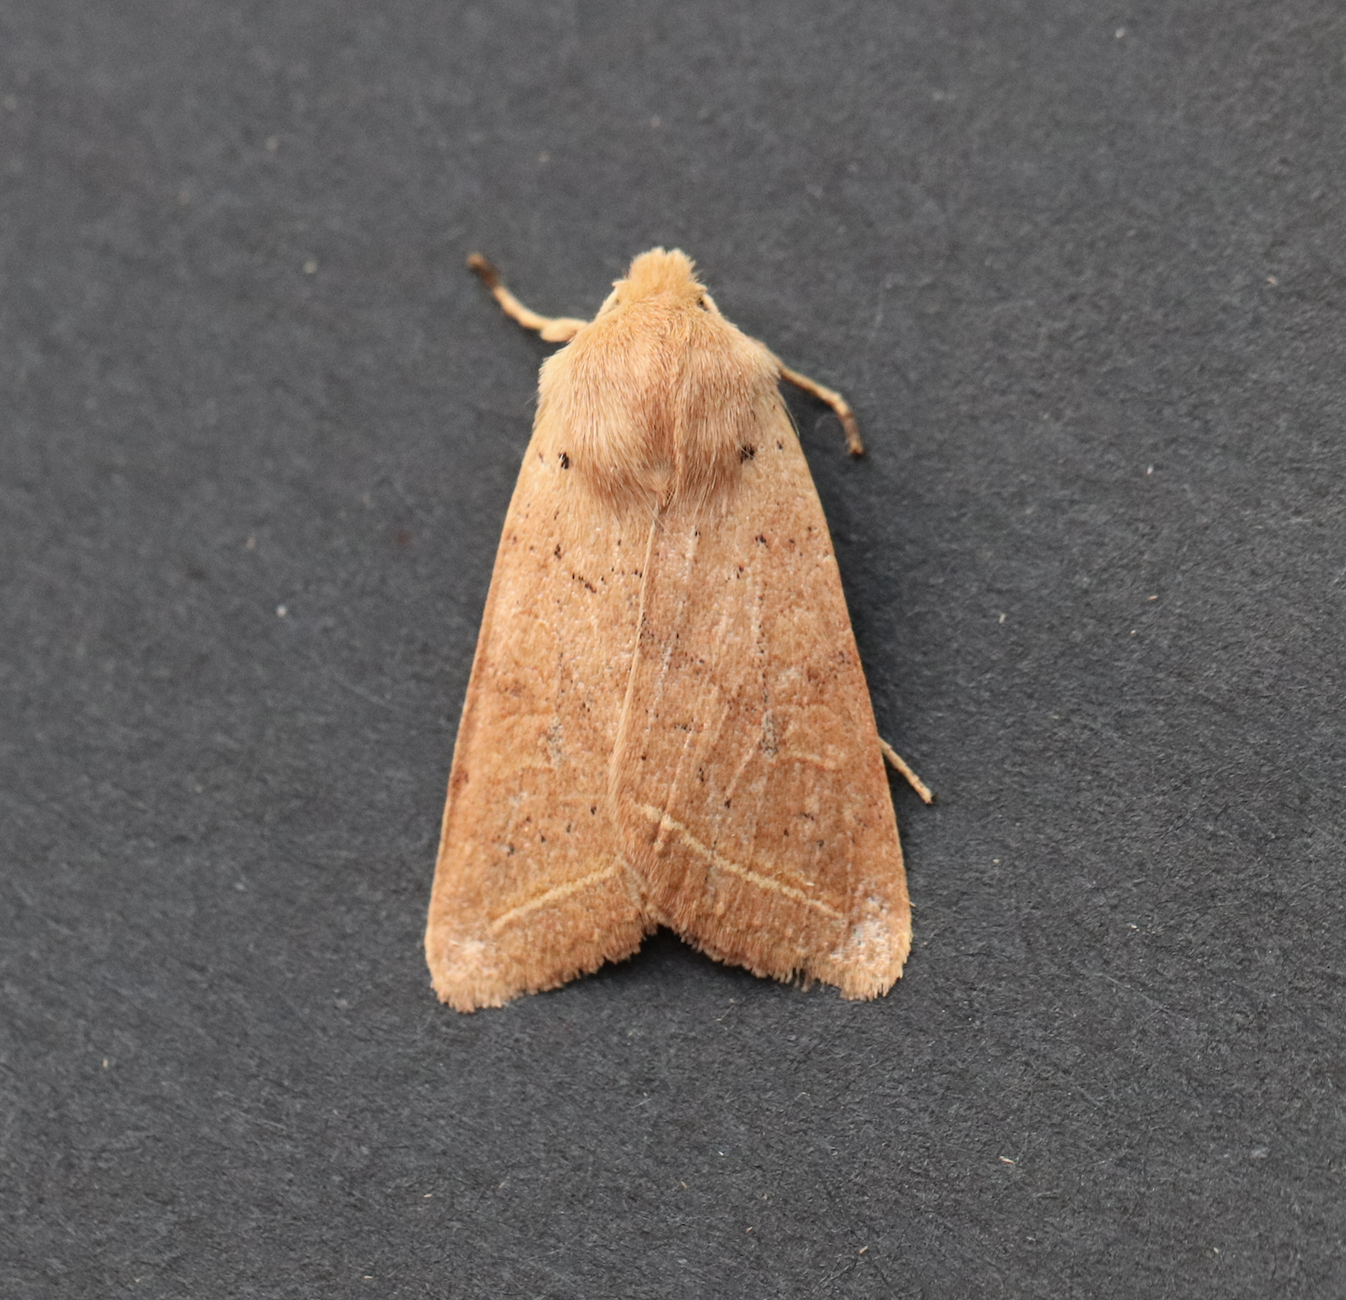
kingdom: Animalia
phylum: Arthropoda
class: Insecta
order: Lepidoptera
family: Noctuidae
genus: Agrochola
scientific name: Agrochola macilenta
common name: Yellow-line quaker
